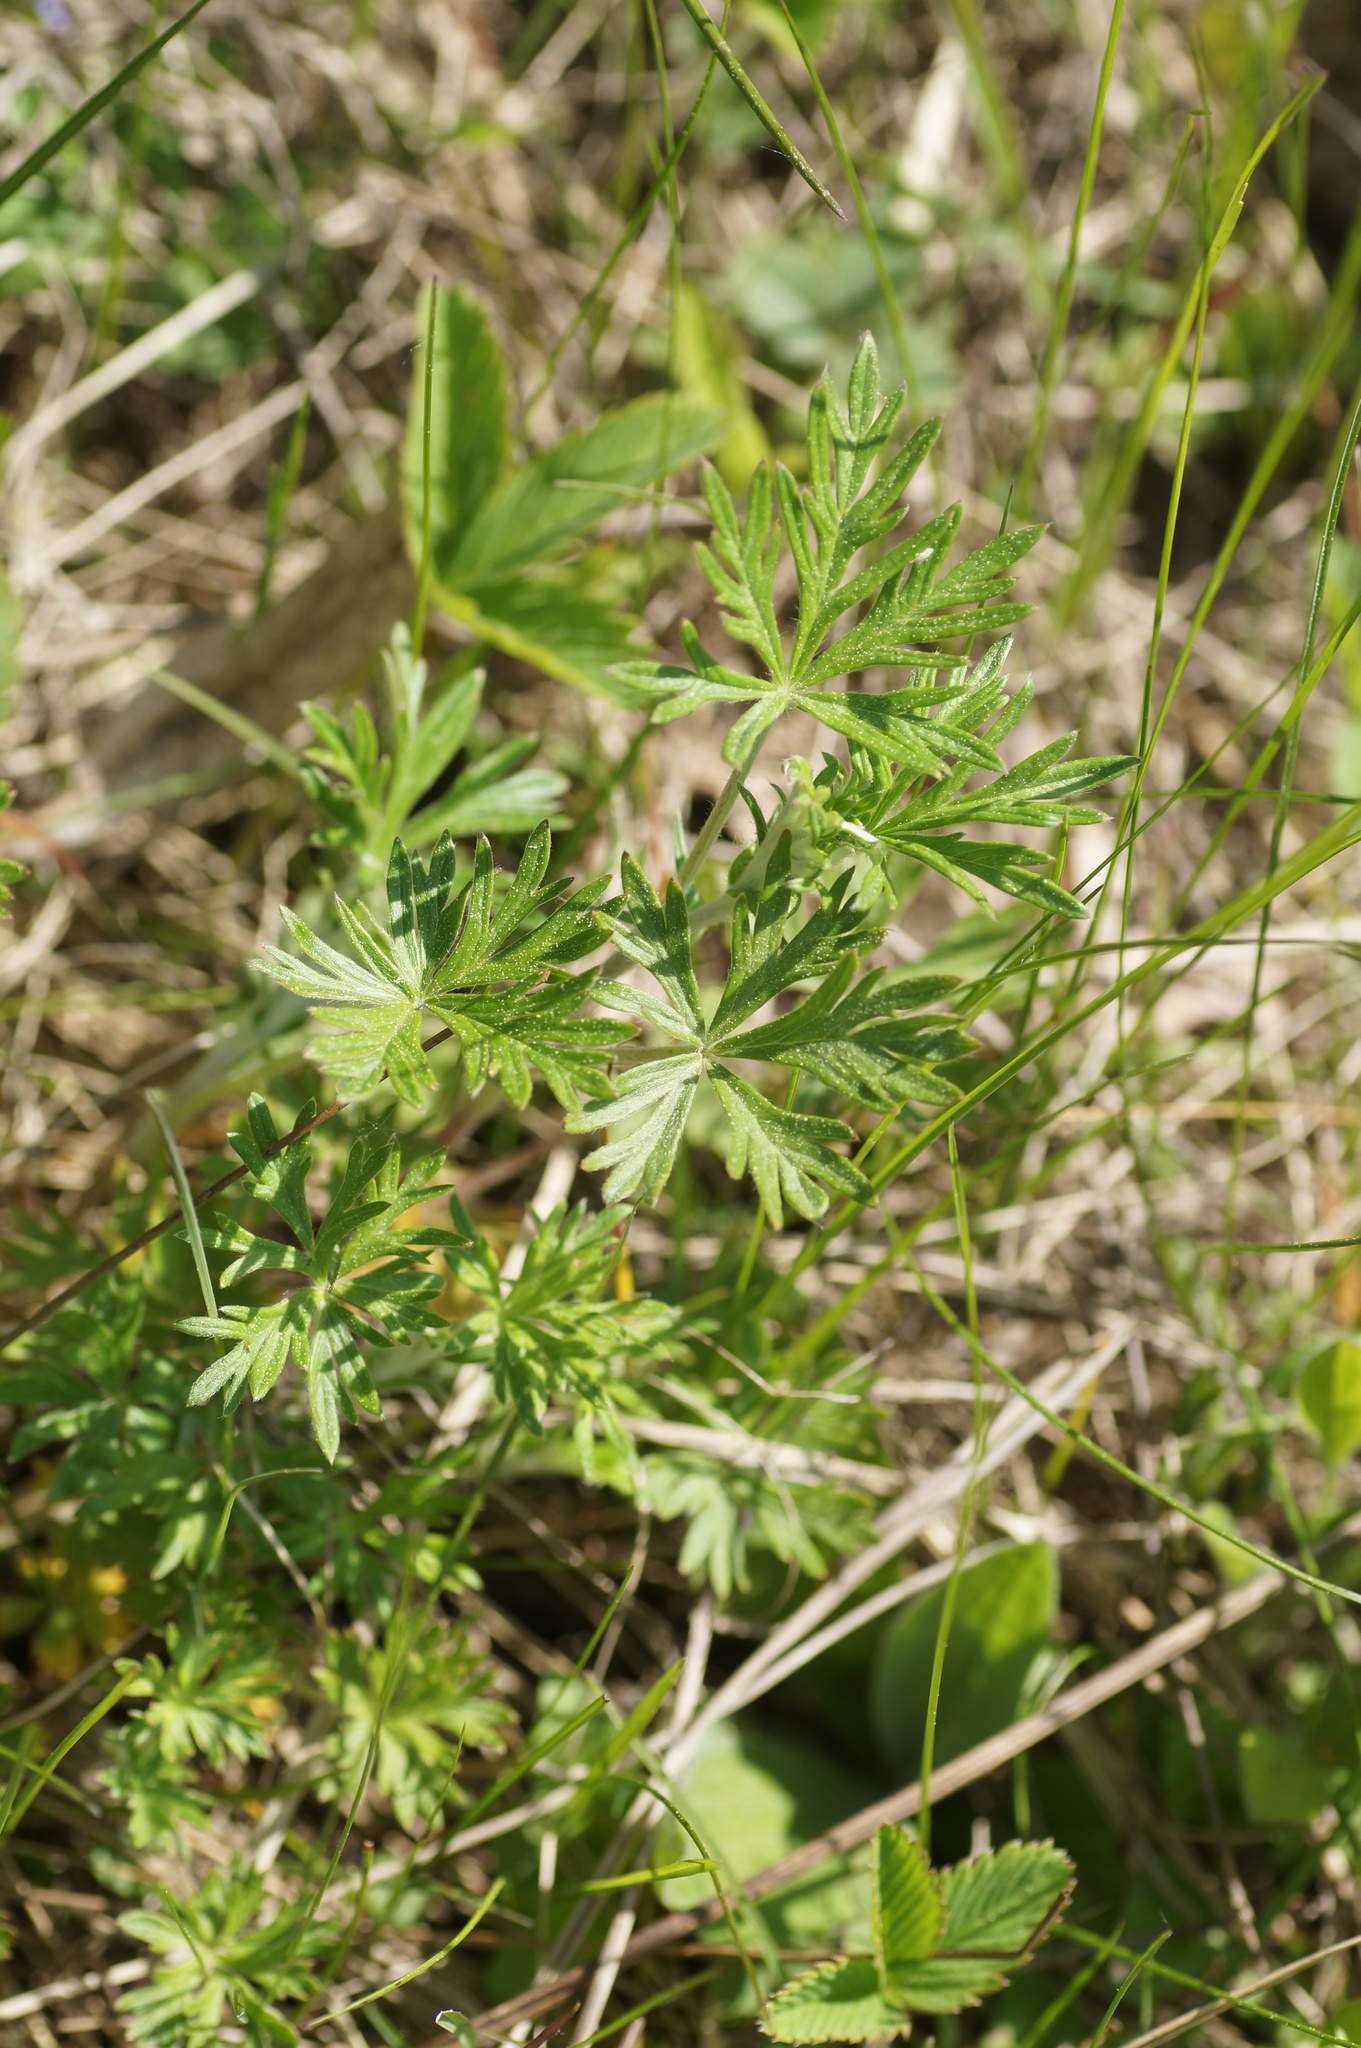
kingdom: Plantae
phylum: Tracheophyta
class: Magnoliopsida
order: Rosales
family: Rosaceae
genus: Potentilla
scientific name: Potentilla argentea
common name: Hoary cinquefoil
